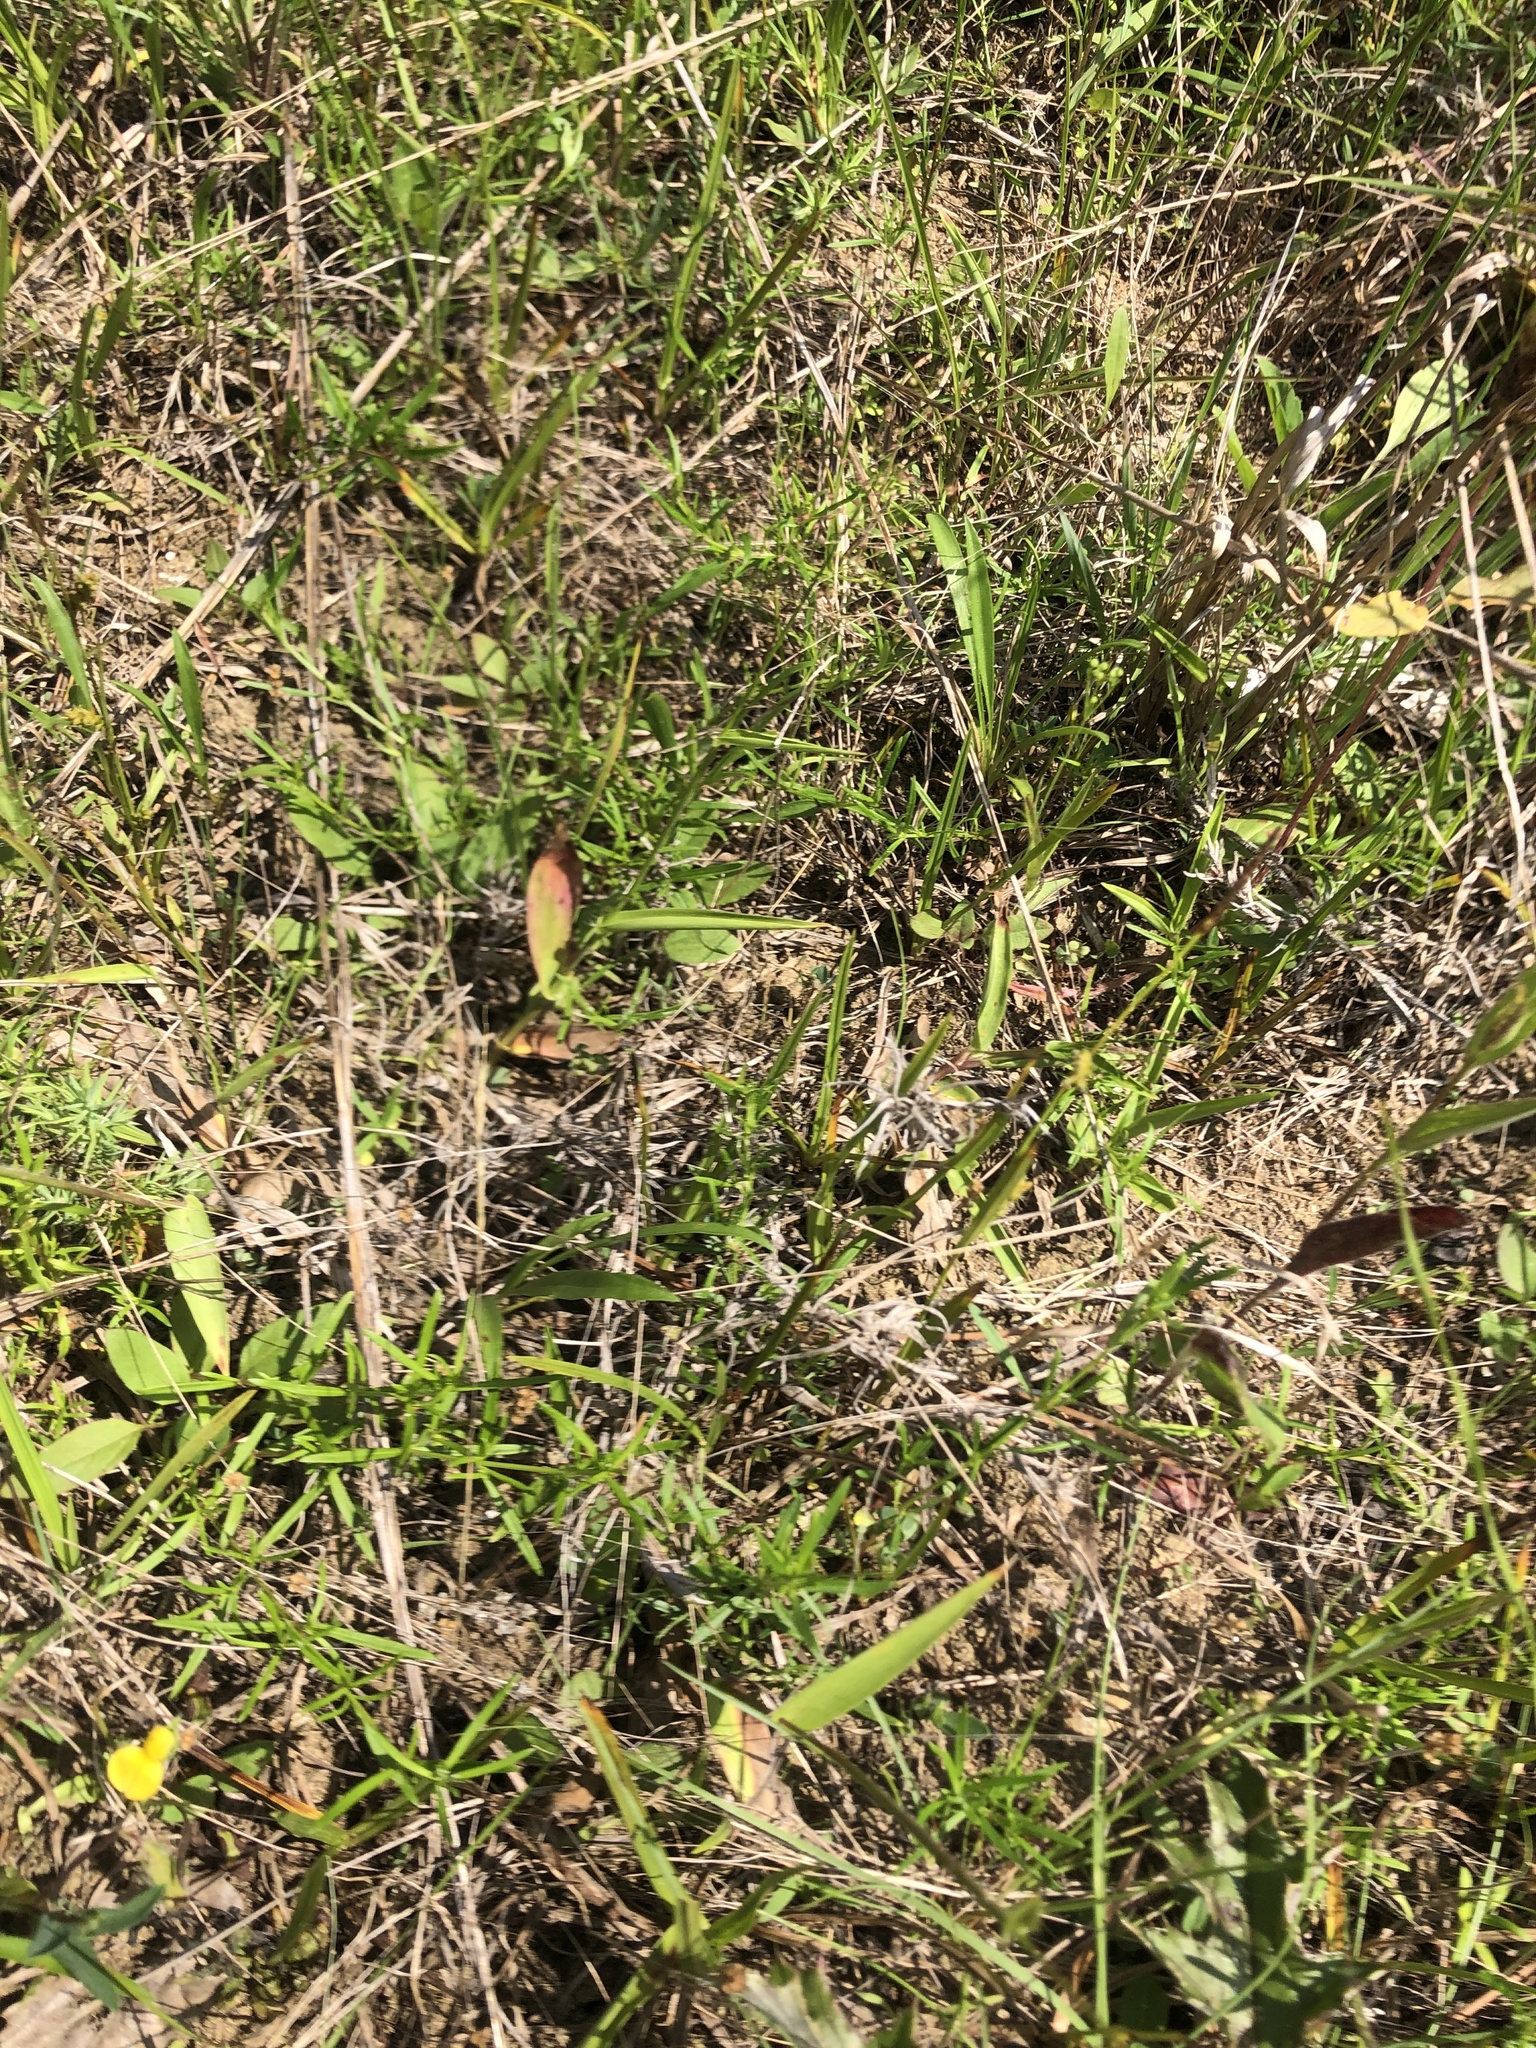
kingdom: Plantae
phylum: Tracheophyta
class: Magnoliopsida
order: Asterales
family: Campanulaceae
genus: Lobelia
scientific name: Lobelia appendiculata
